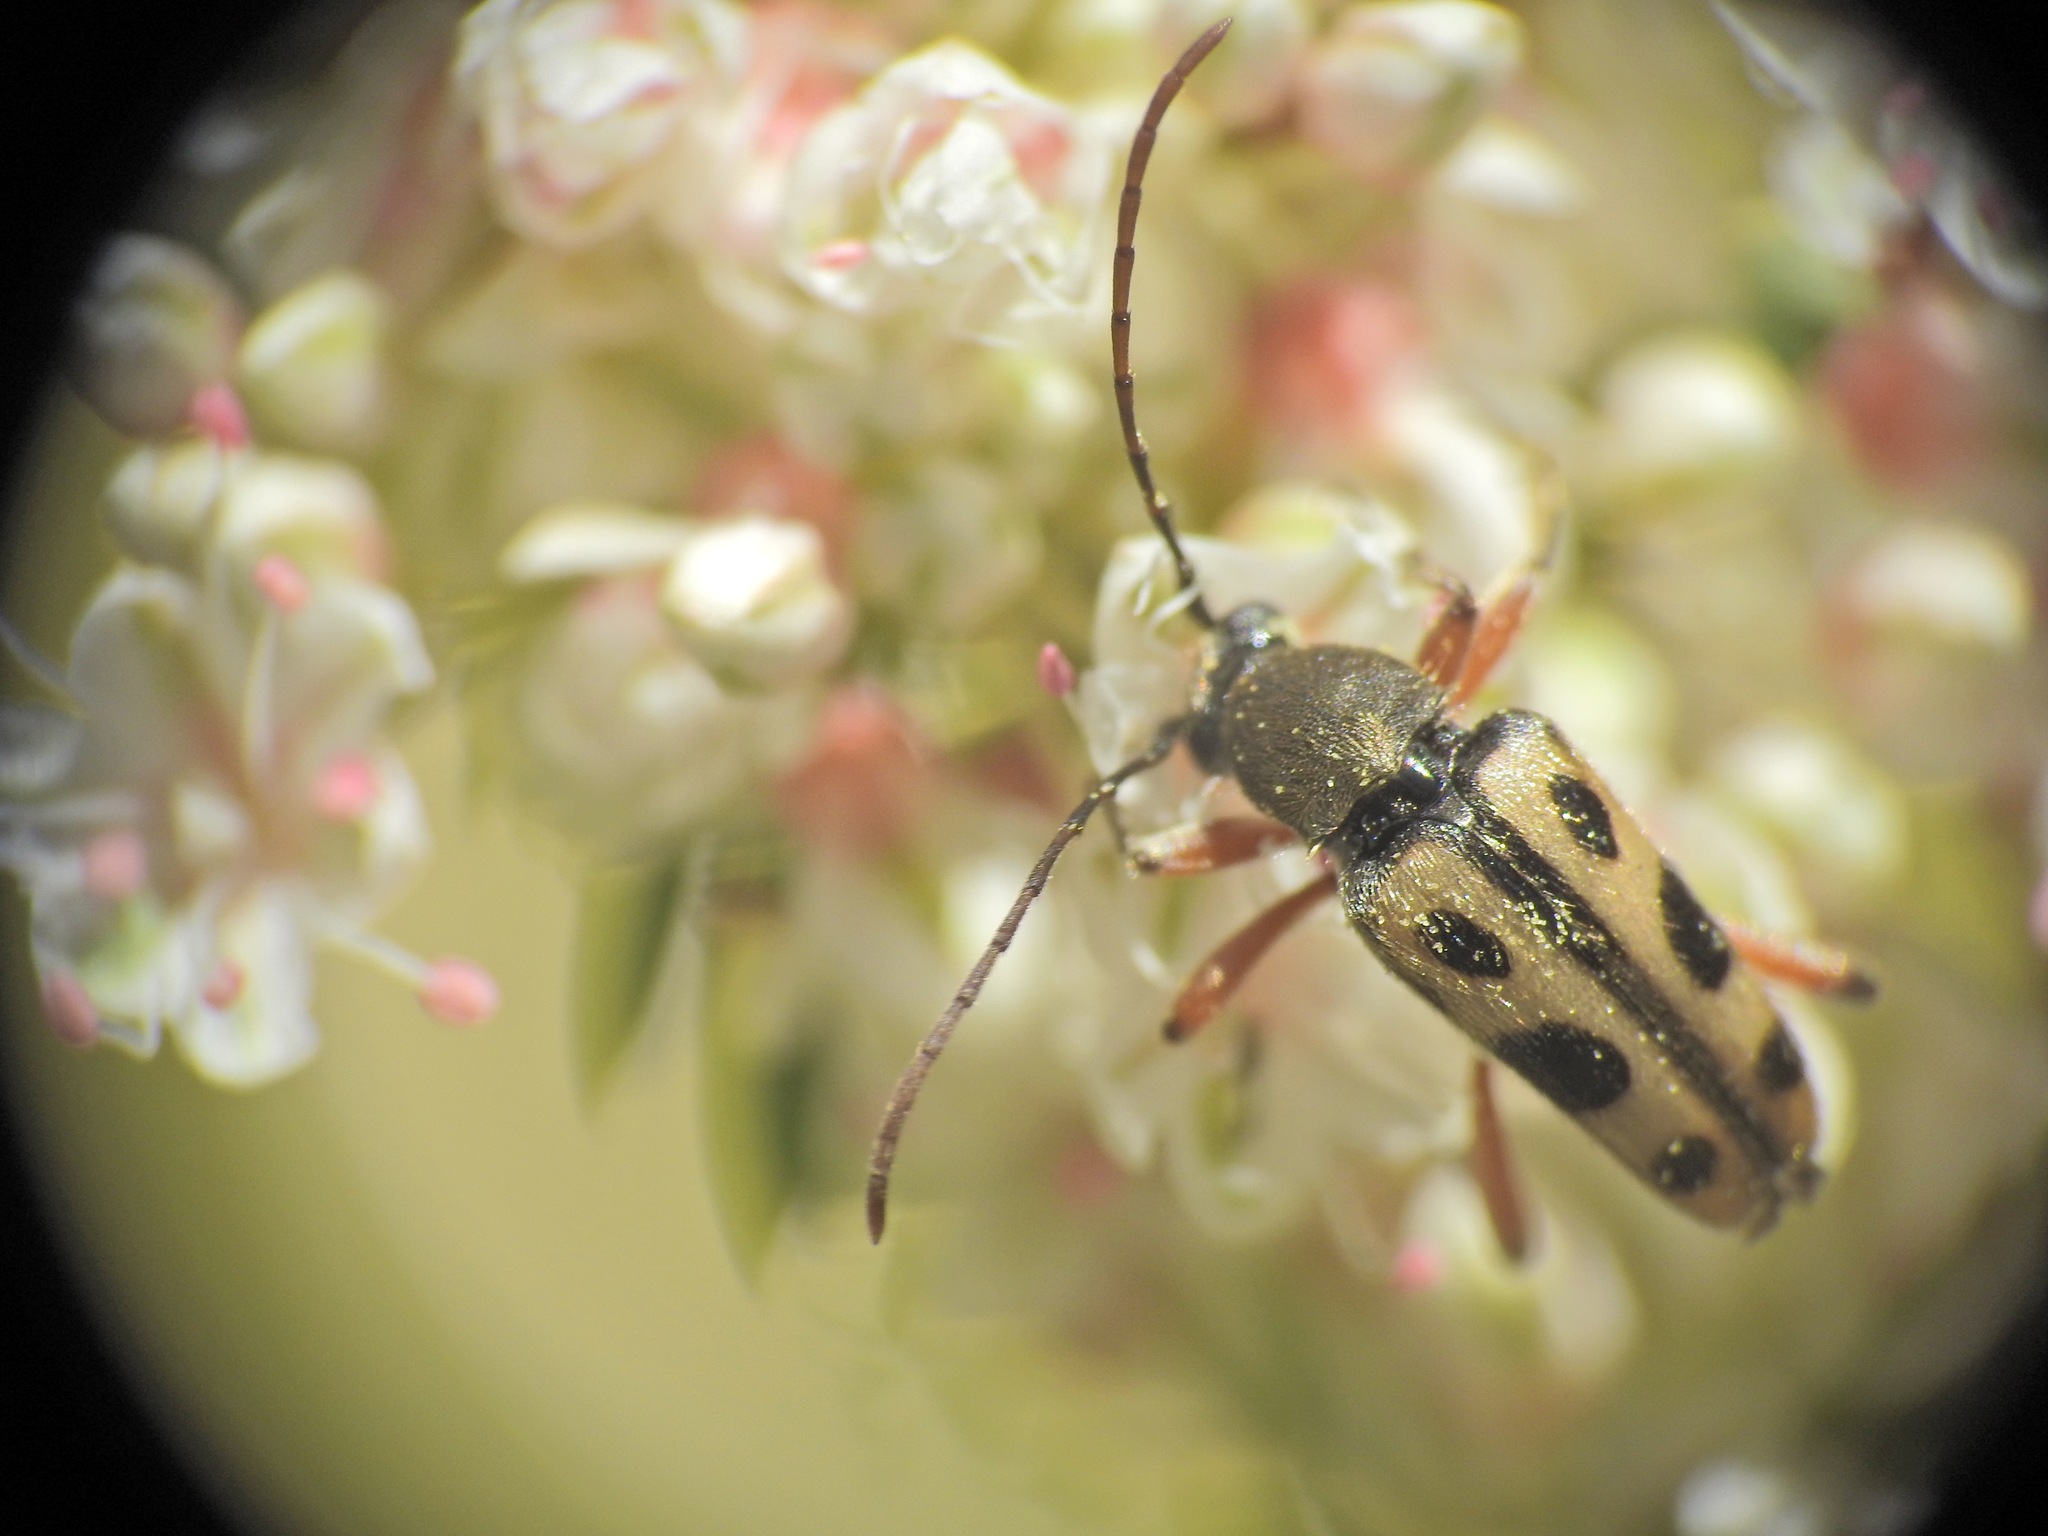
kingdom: Animalia
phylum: Arthropoda
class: Insecta
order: Coleoptera
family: Cerambycidae
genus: Judolia
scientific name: Judolia sexspilota
